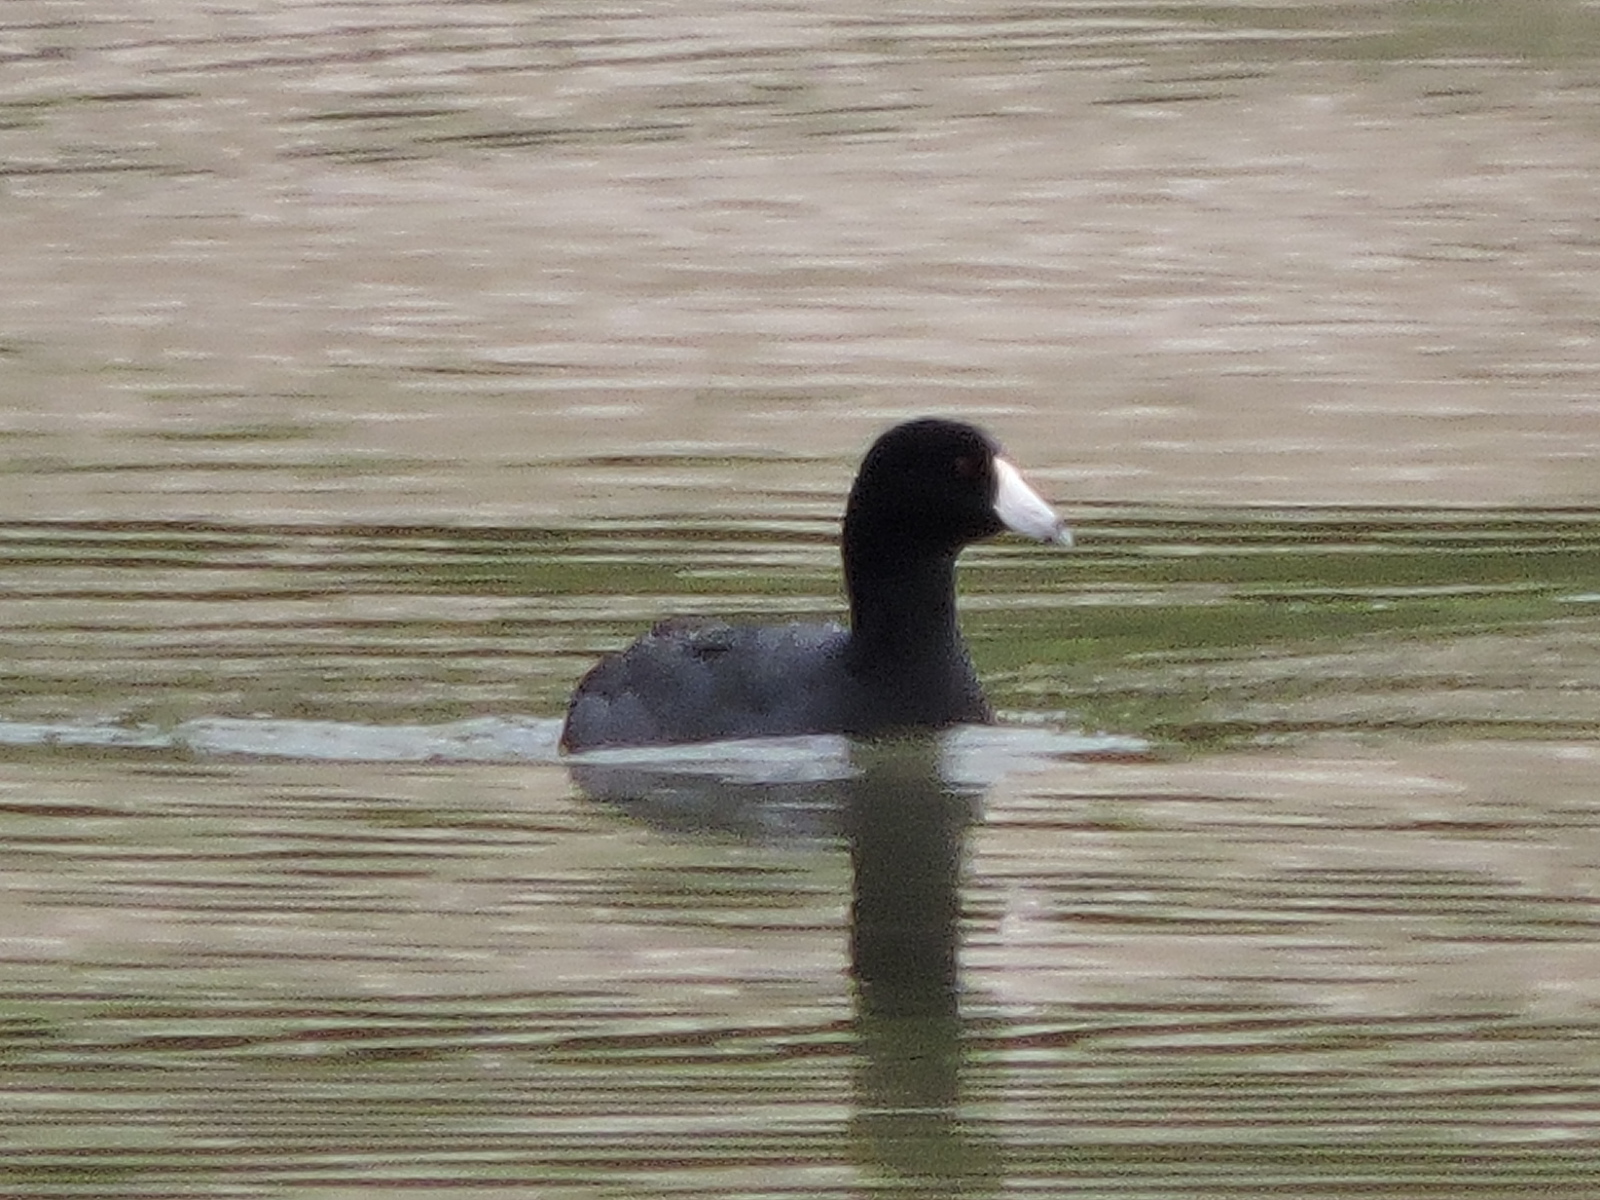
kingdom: Animalia
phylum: Chordata
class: Aves
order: Gruiformes
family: Rallidae
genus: Fulica
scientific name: Fulica americana
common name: American coot
